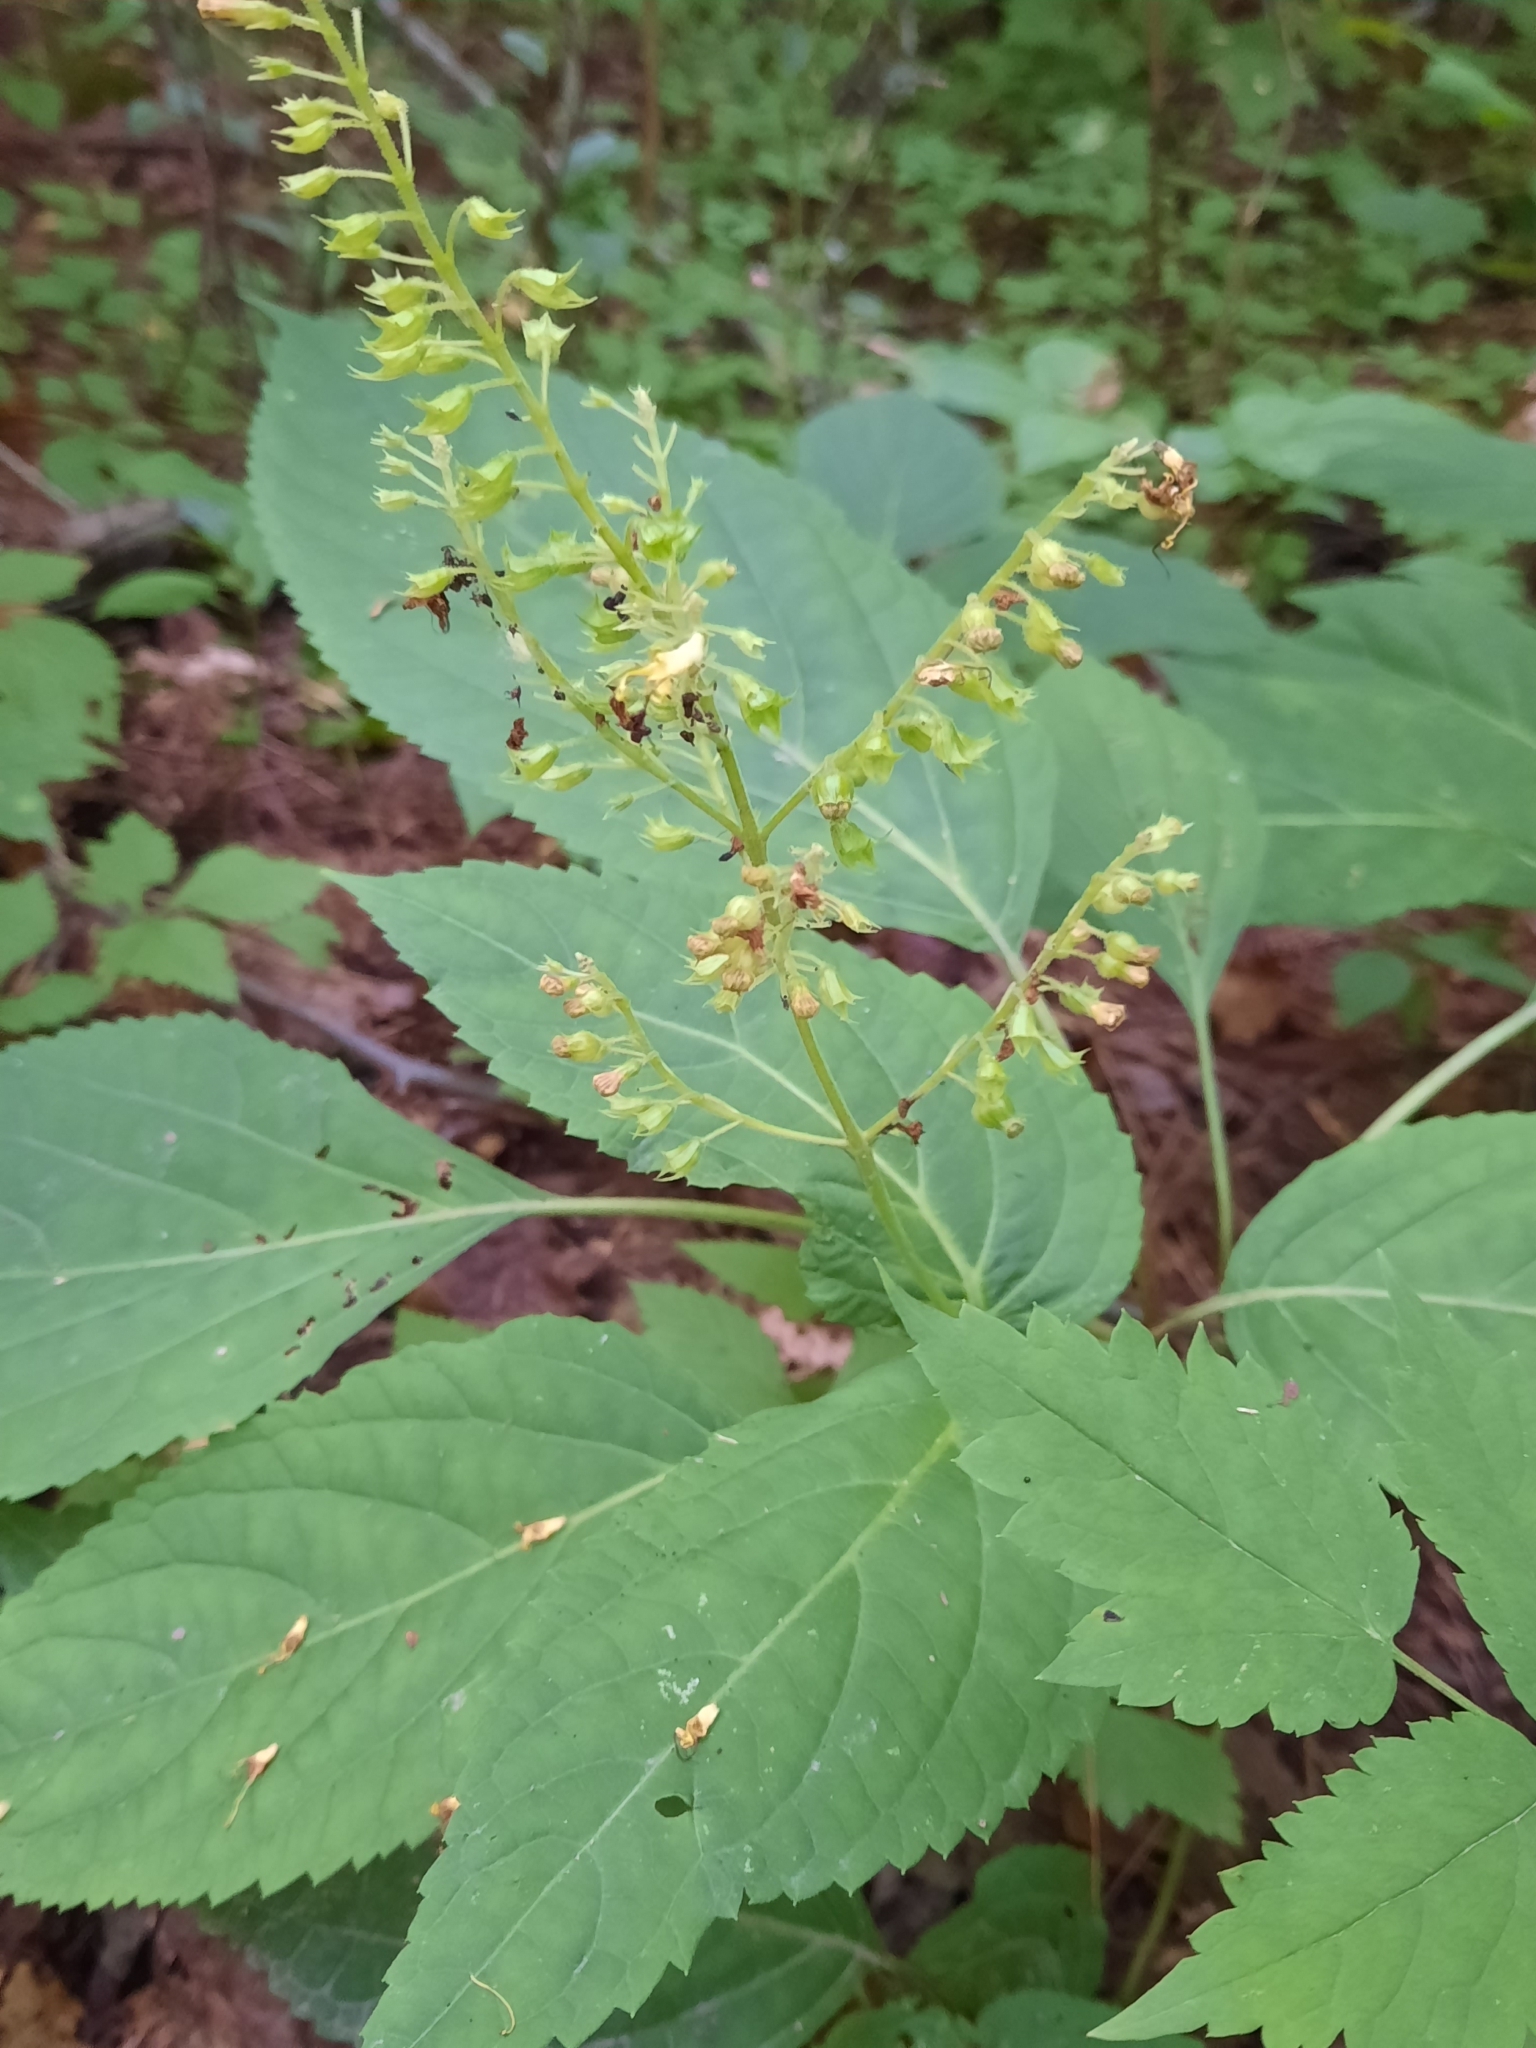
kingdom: Plantae
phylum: Tracheophyta
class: Magnoliopsida
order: Lamiales
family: Lamiaceae
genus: Collinsonia
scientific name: Collinsonia canadensis
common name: Northern horsebalm
